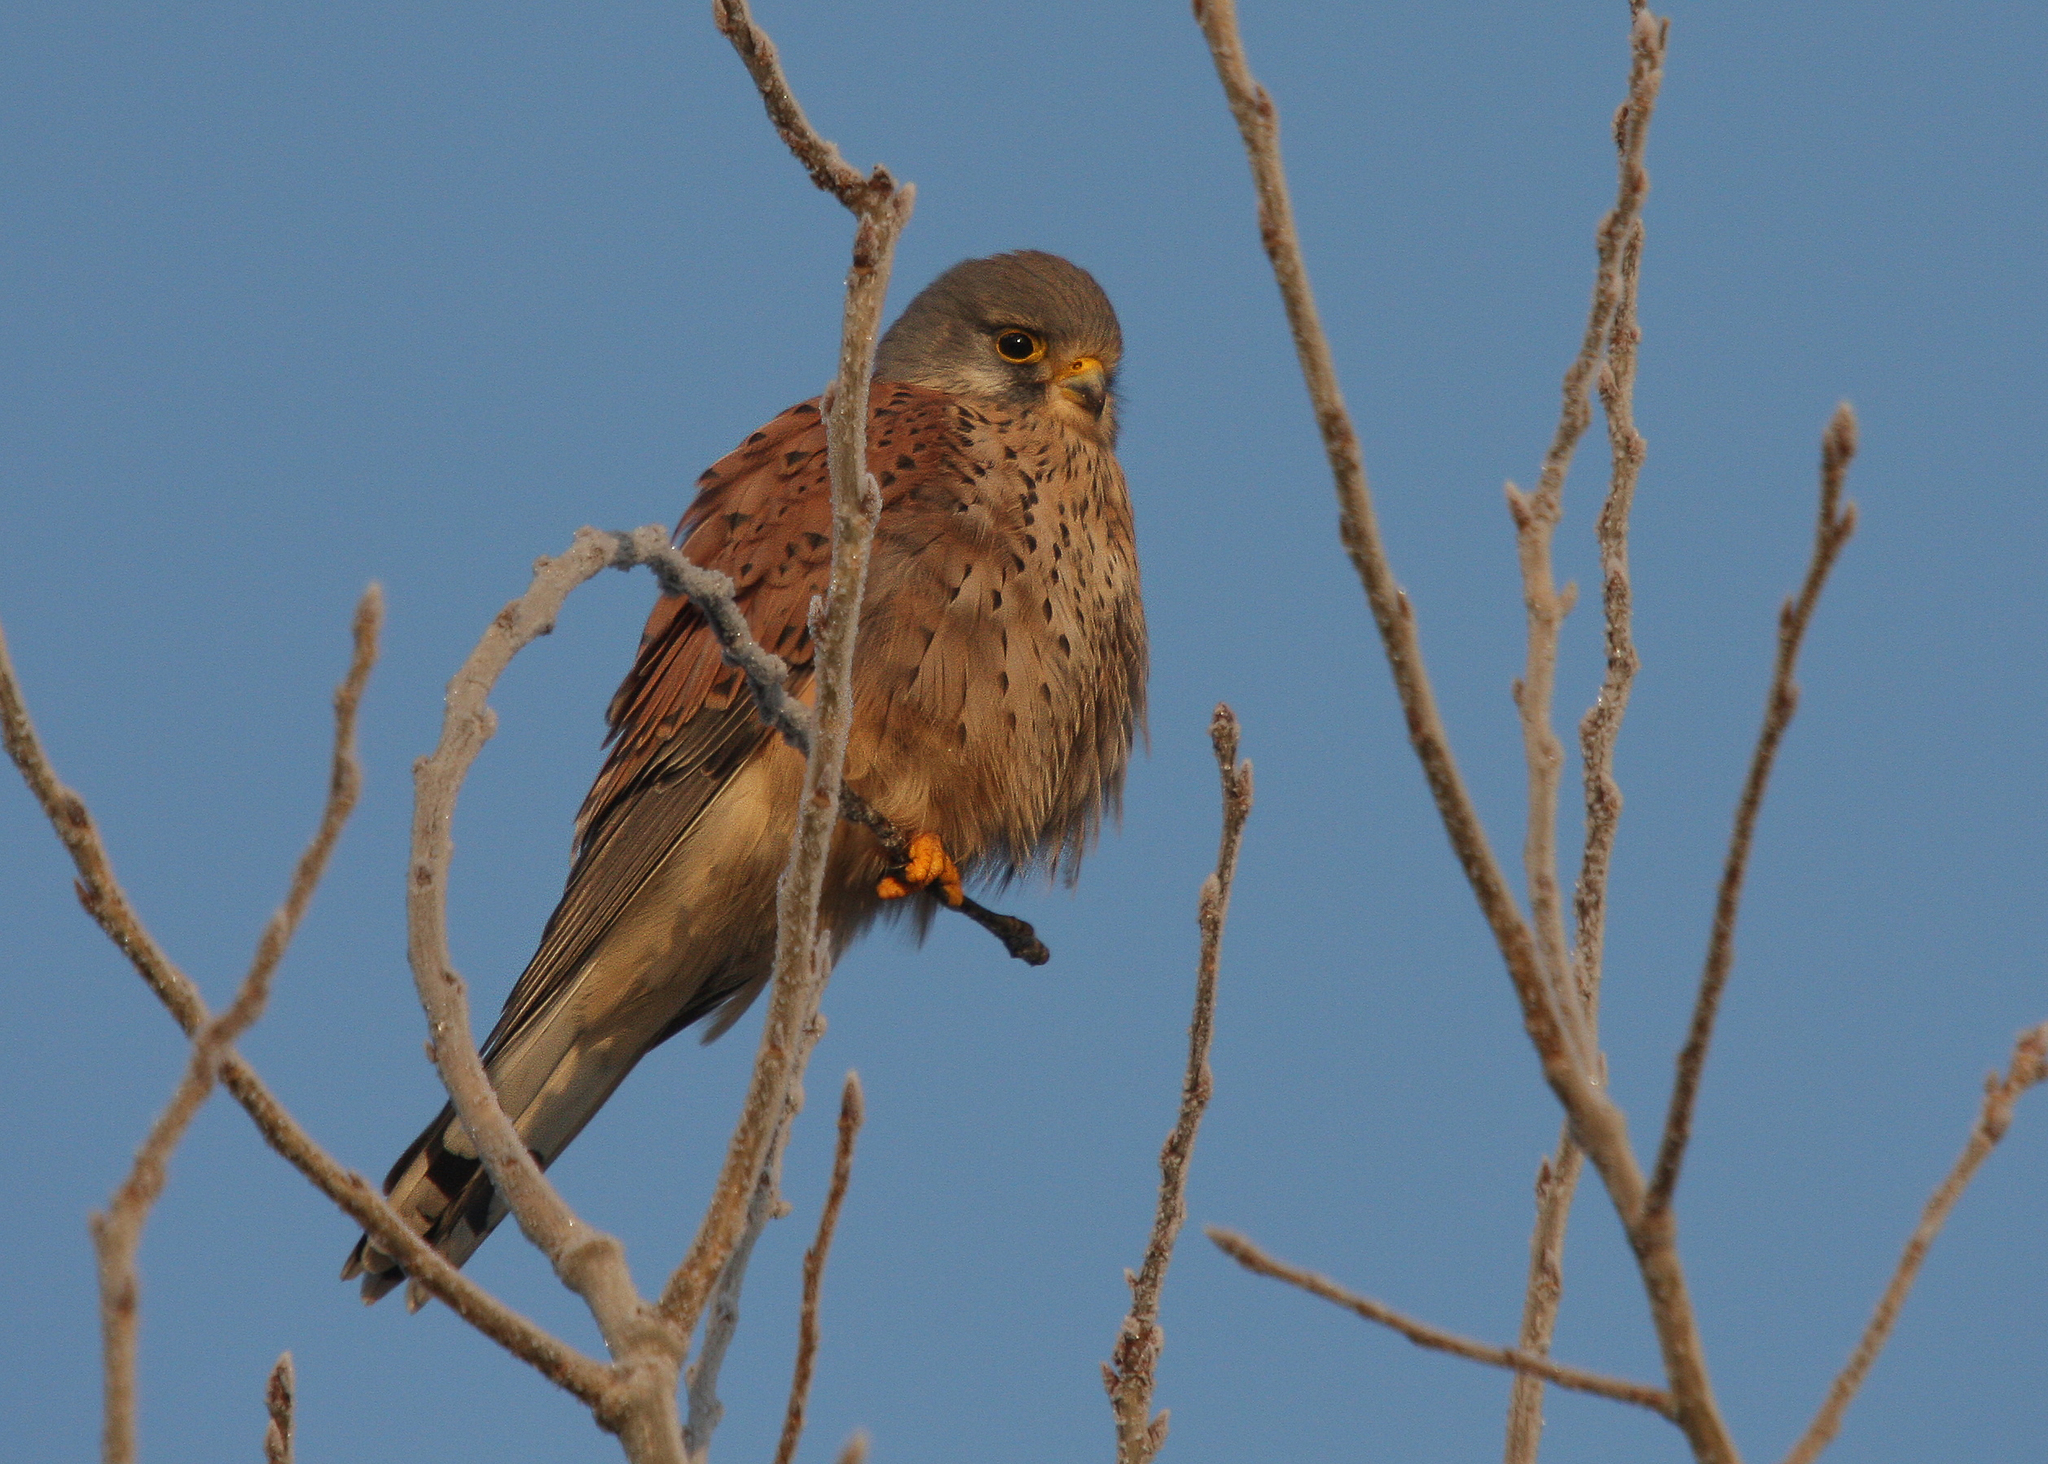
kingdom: Animalia
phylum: Chordata
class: Aves
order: Falconiformes
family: Falconidae
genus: Falco
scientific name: Falco tinnunculus
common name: Common kestrel
